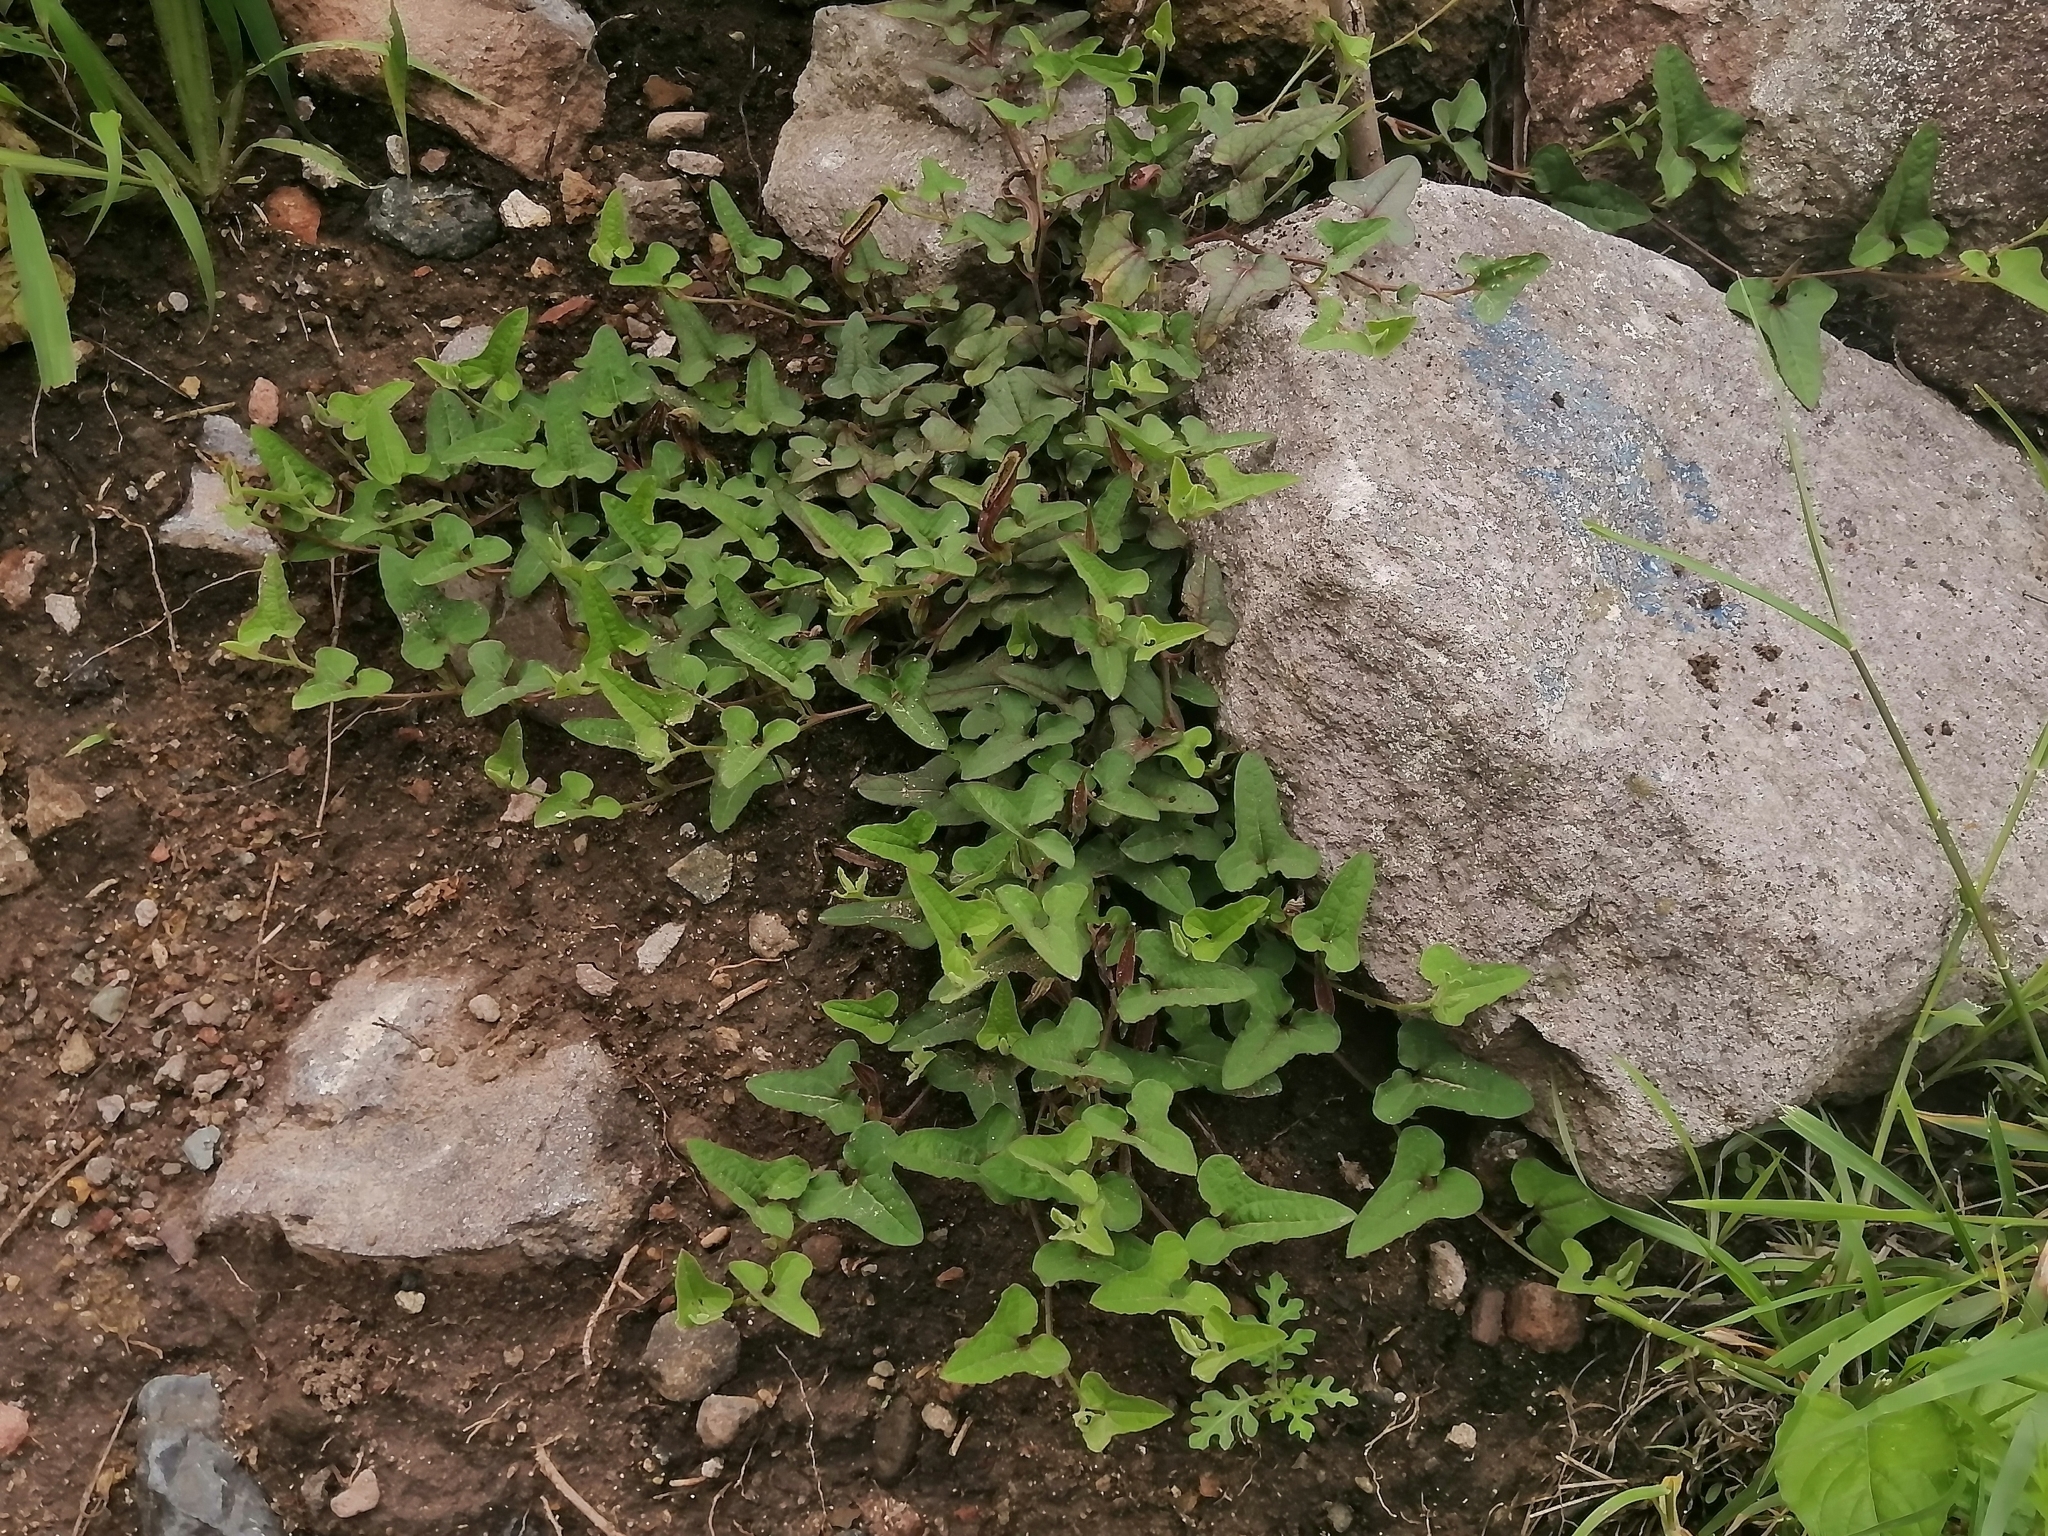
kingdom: Plantae
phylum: Tracheophyta
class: Magnoliopsida
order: Piperales
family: Aristolochiaceae
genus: Aristolochia
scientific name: Aristolochia versabilifolia
